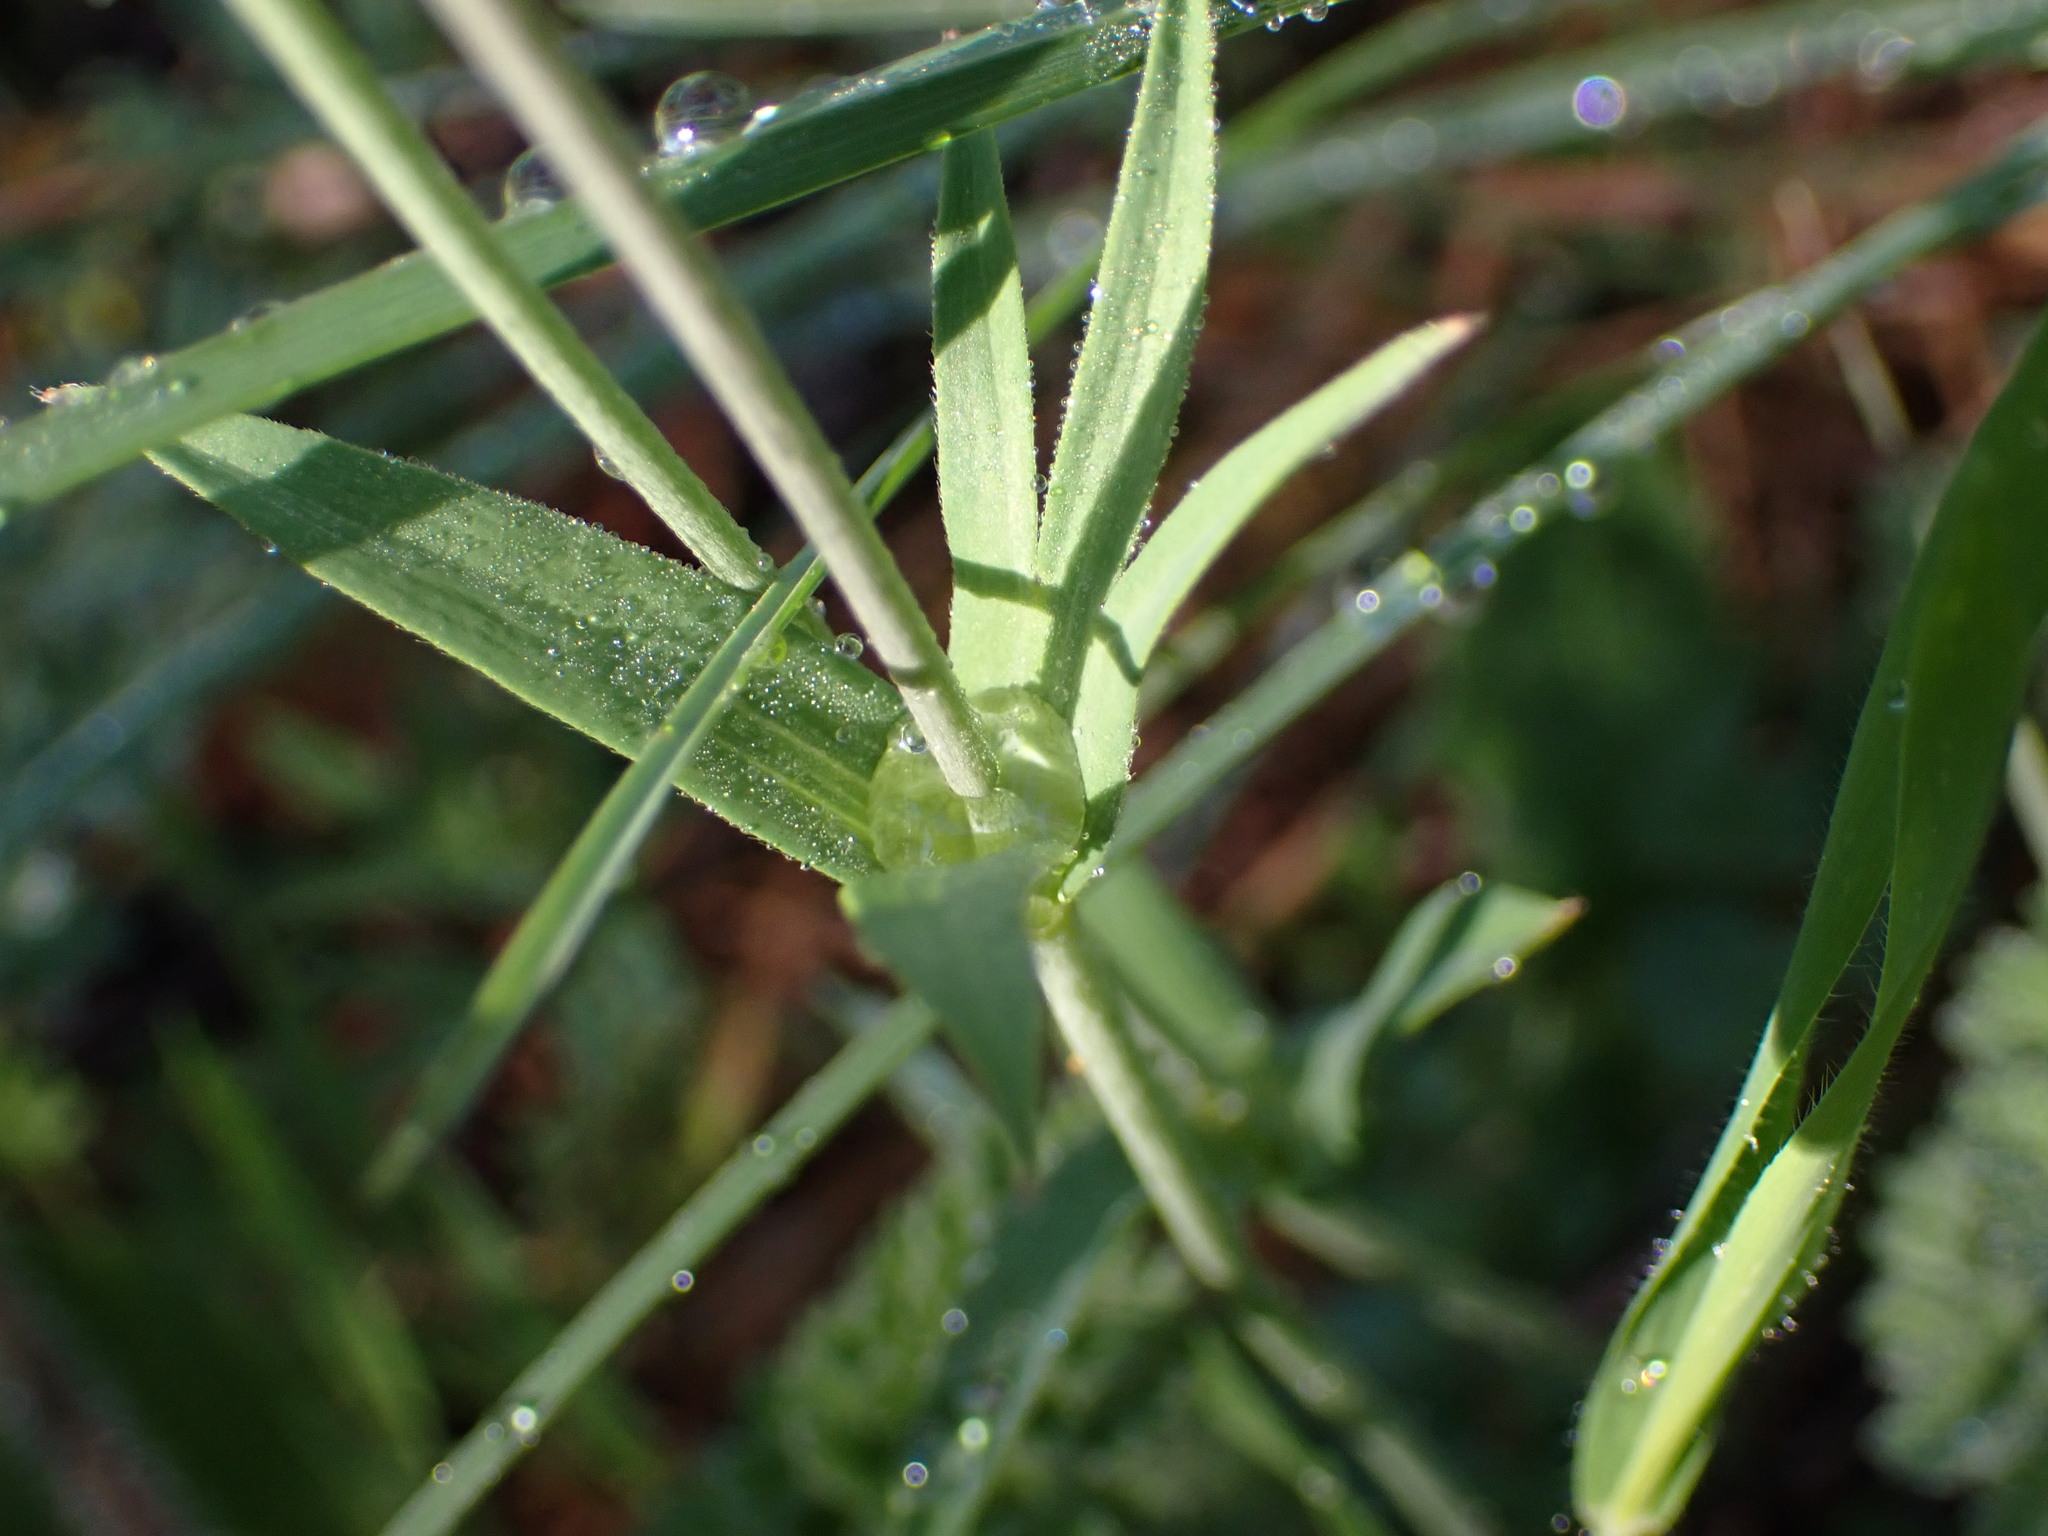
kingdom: Plantae
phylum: Tracheophyta
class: Magnoliopsida
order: Ranunculales
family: Ranunculaceae
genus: Anemone
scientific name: Anemone hortensis
